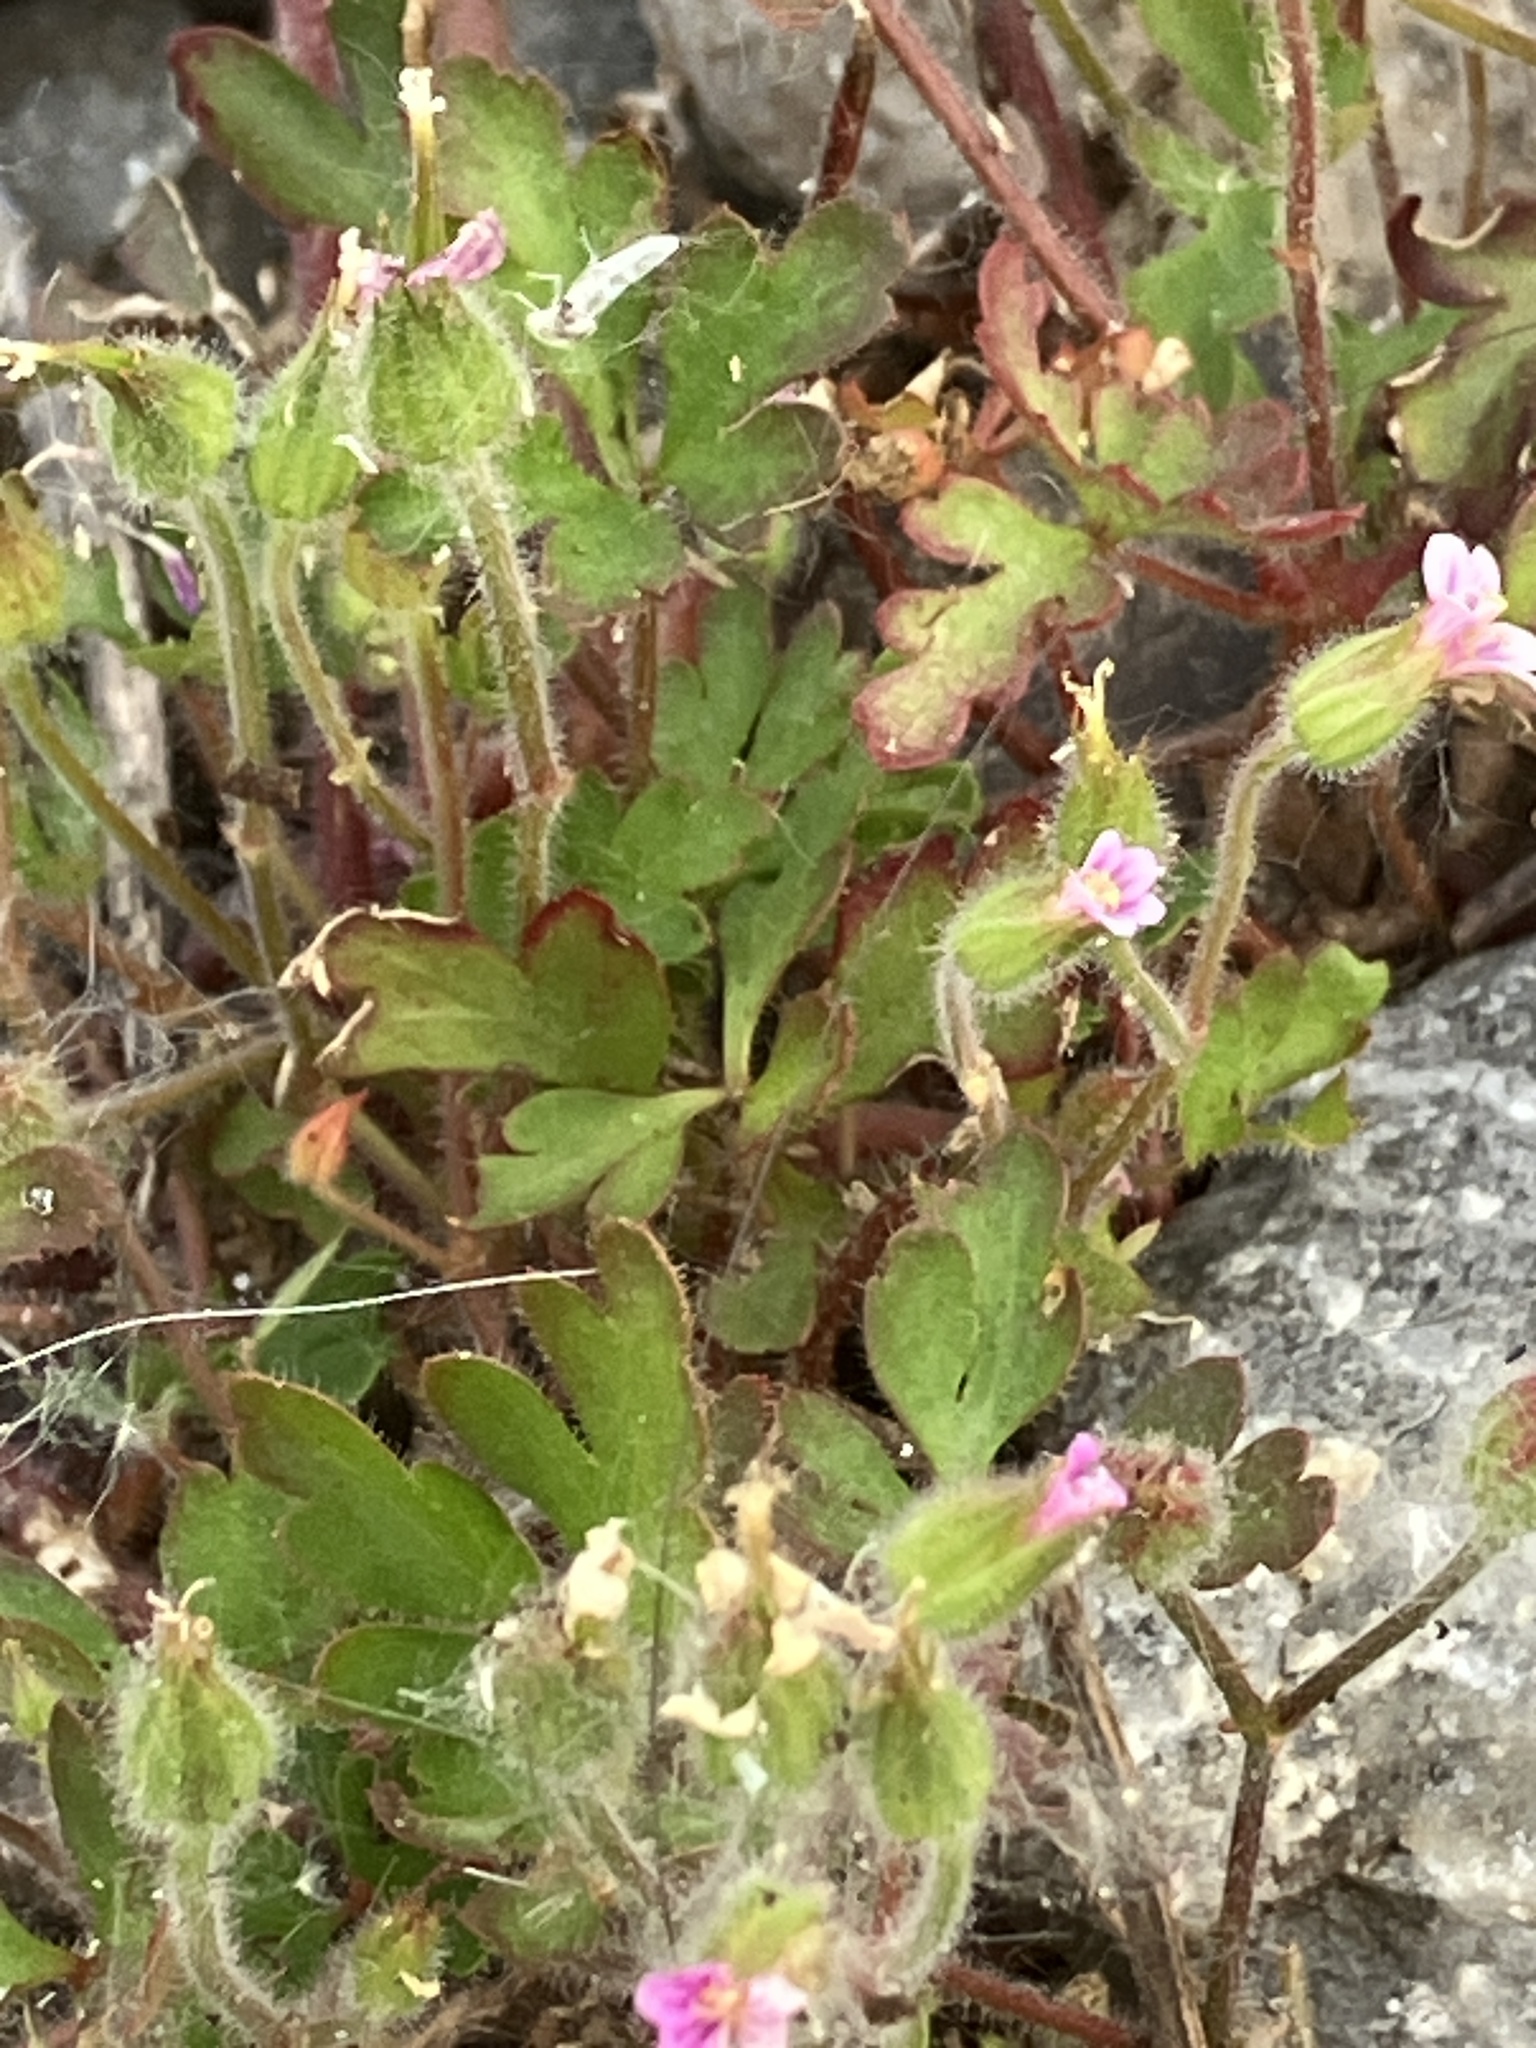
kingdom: Plantae
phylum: Tracheophyta
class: Magnoliopsida
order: Geraniales
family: Geraniaceae
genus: Geranium
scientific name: Geranium purpureum
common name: Little-robin
